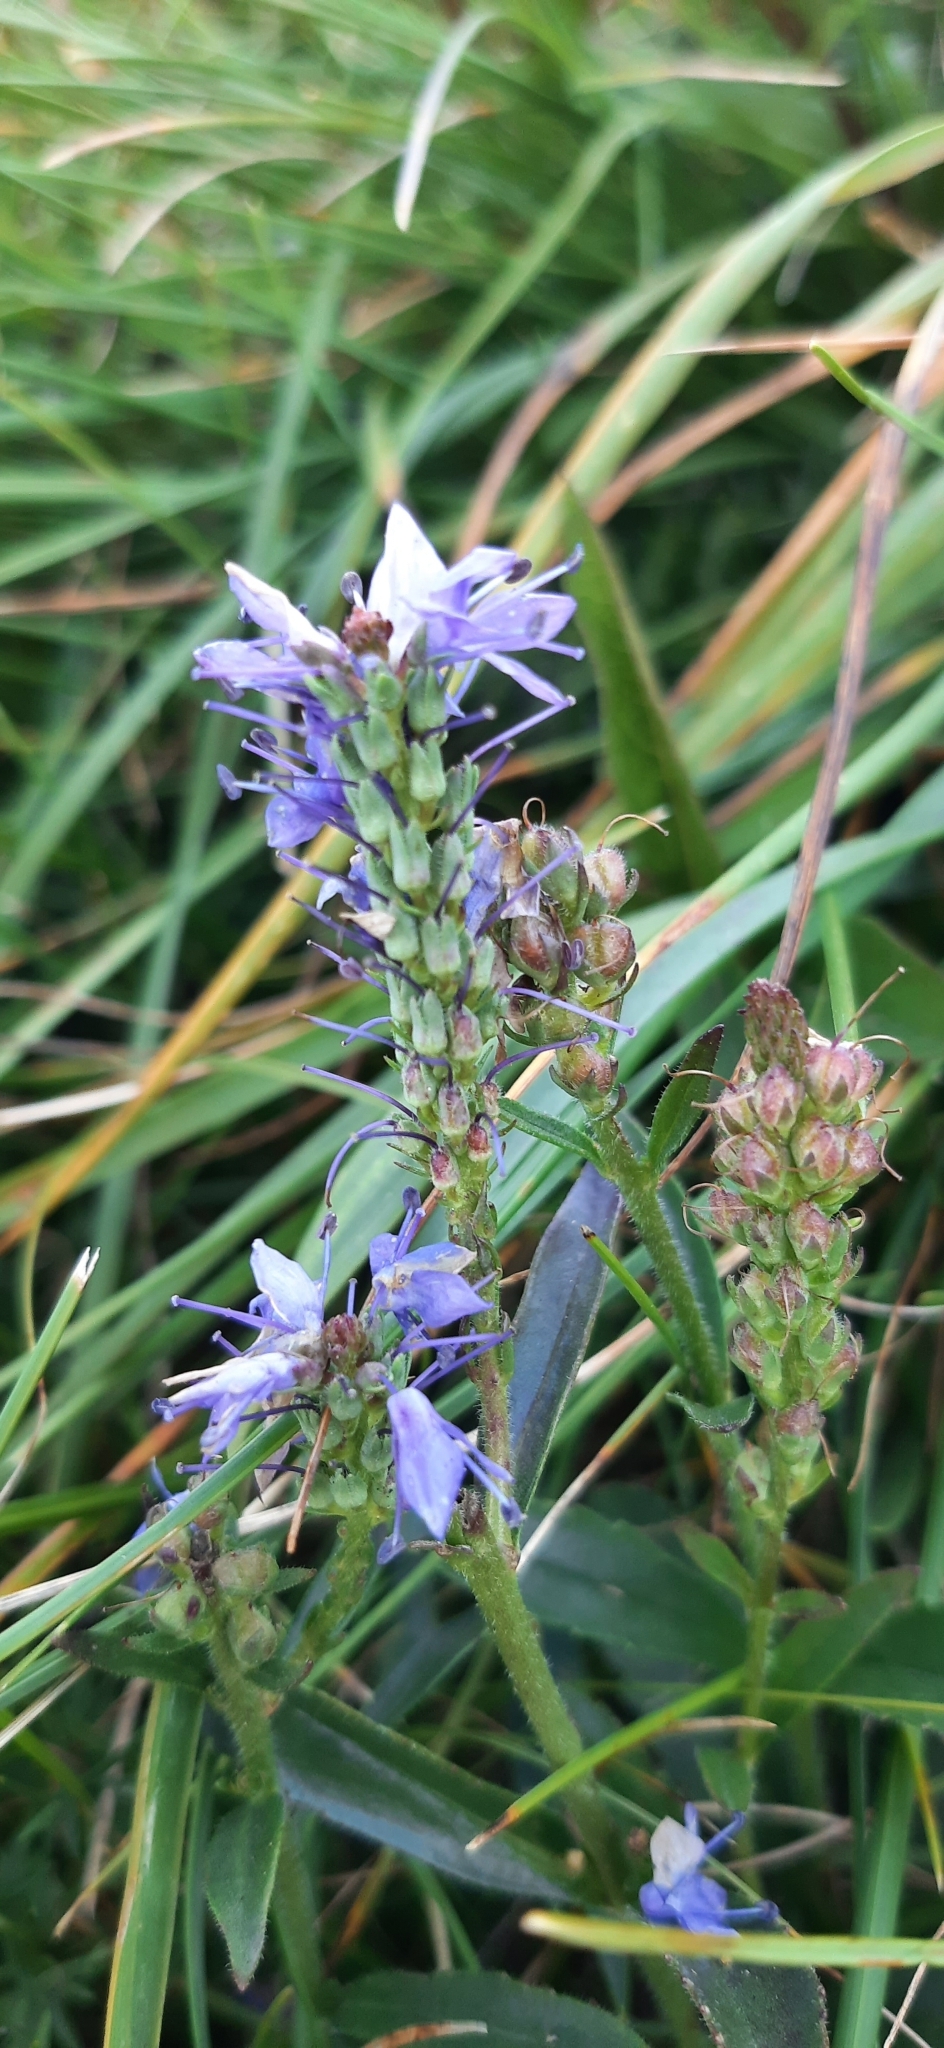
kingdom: Plantae
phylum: Tracheophyta
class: Magnoliopsida
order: Lamiales
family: Plantaginaceae
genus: Veronica
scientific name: Veronica barrelieri
